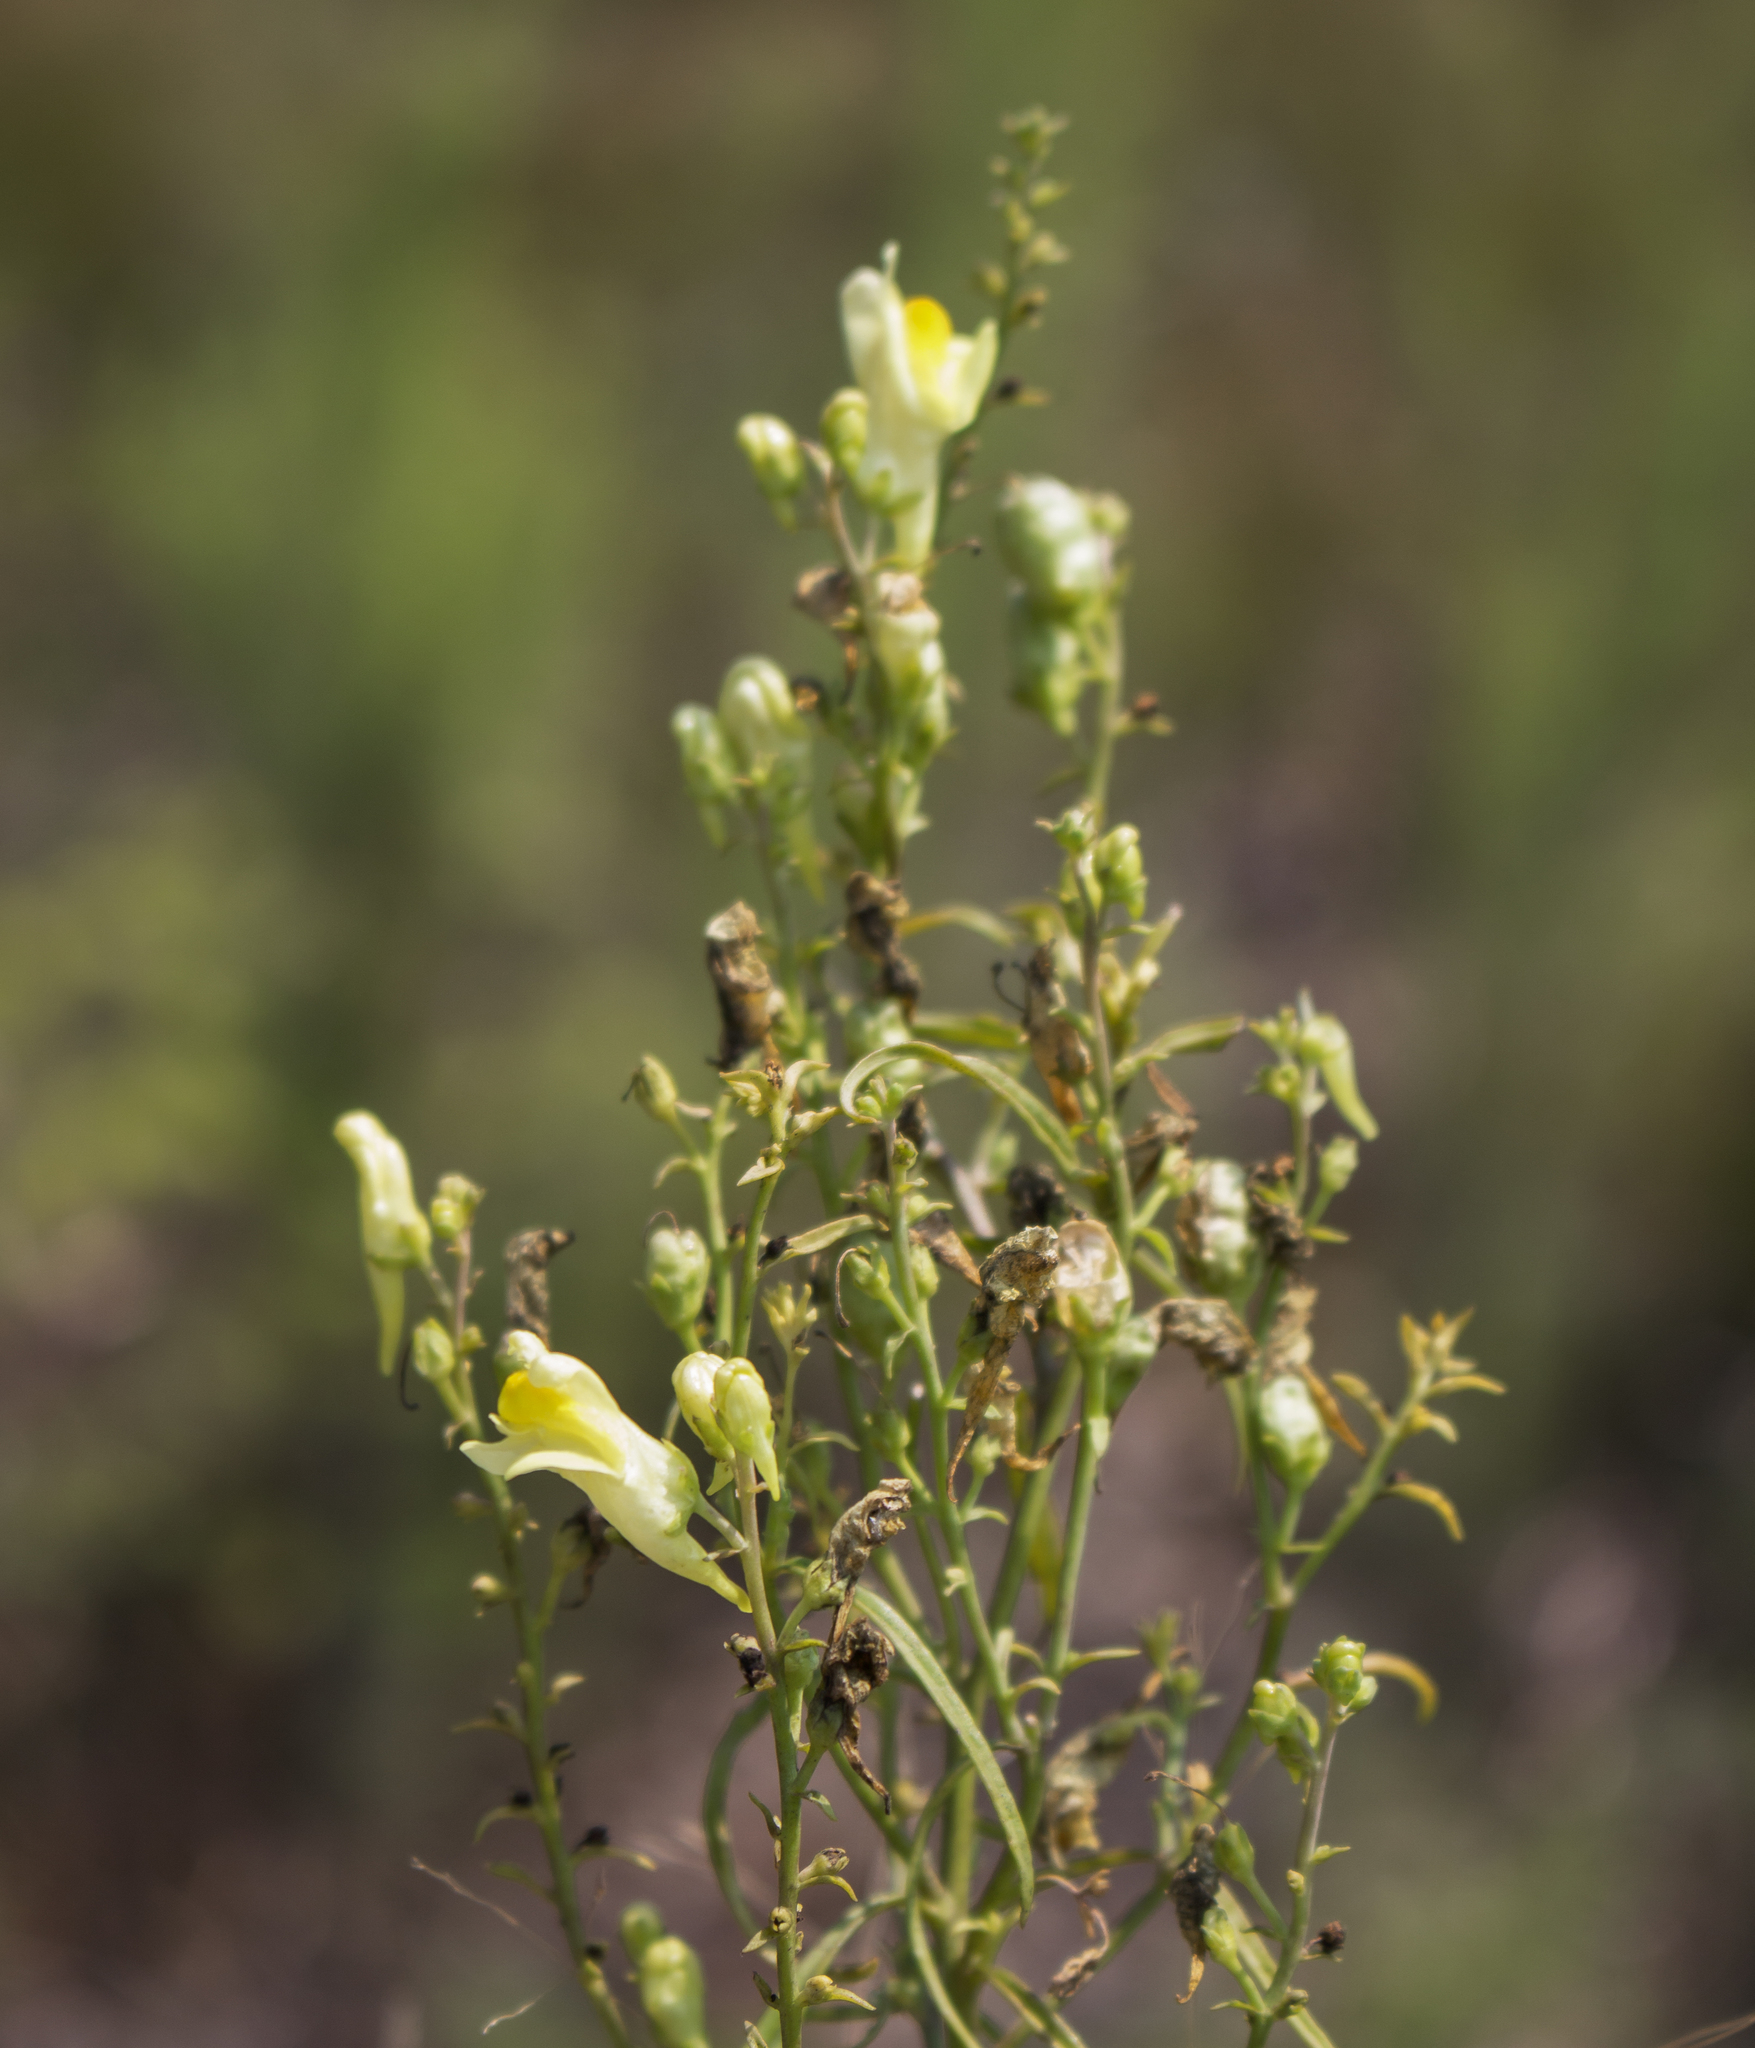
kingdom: Plantae
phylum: Tracheophyta
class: Magnoliopsida
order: Lamiales
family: Plantaginaceae
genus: Linaria
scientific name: Linaria vulgaris
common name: Butter and eggs
